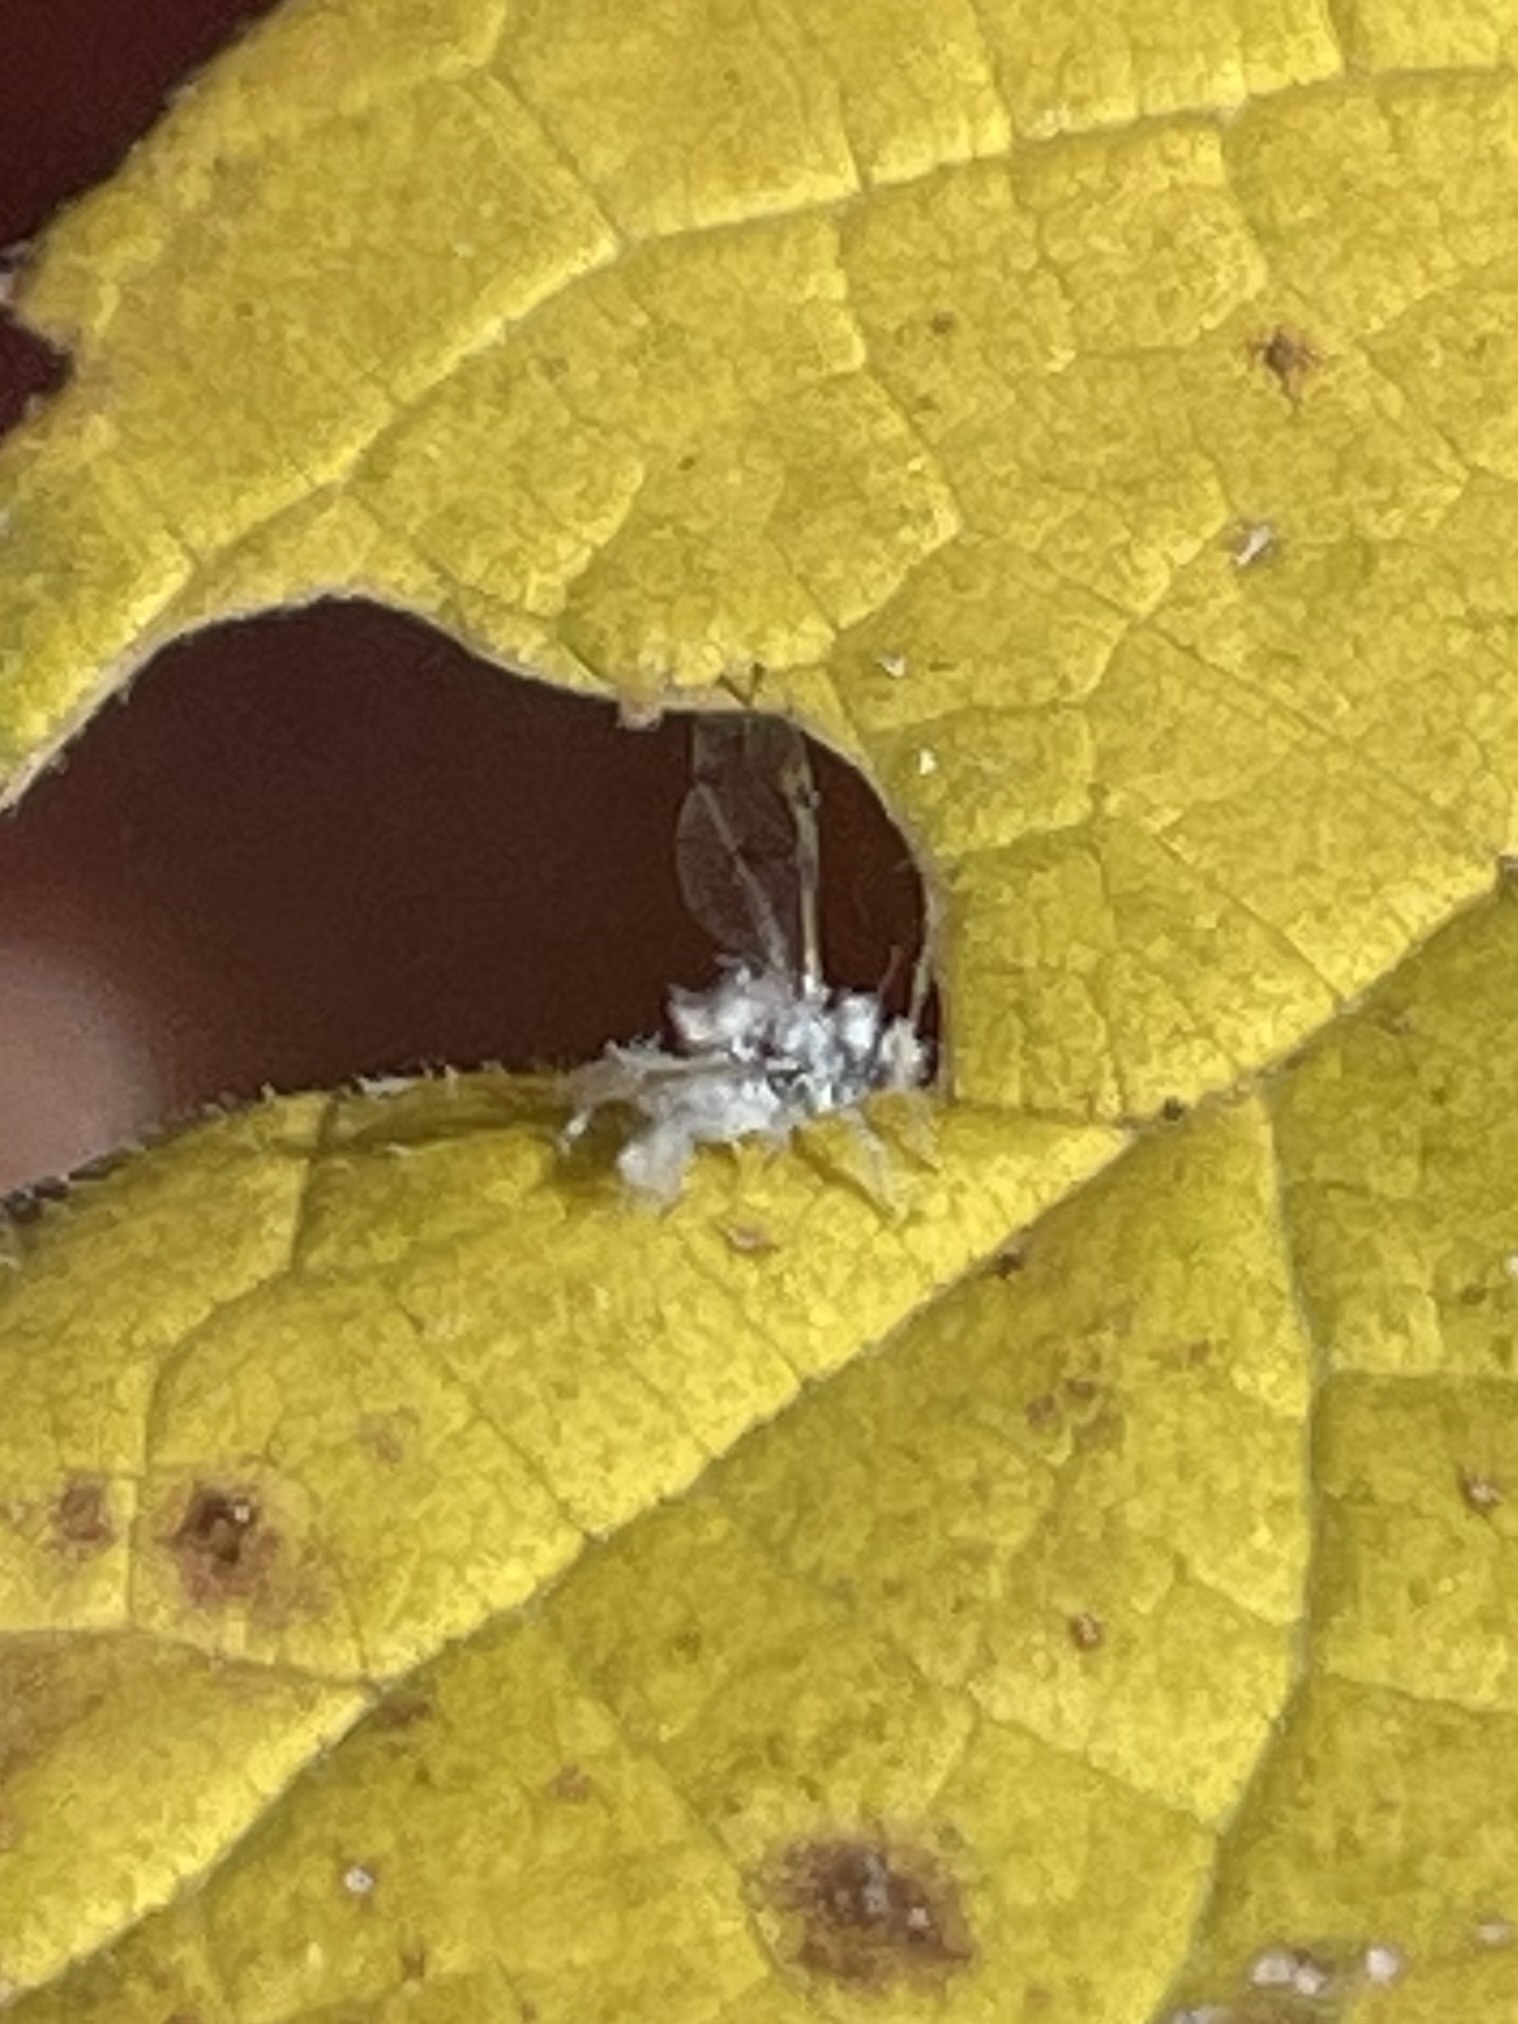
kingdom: Animalia
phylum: Arthropoda
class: Insecta
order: Hemiptera
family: Aphididae
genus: Shivaphis
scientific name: Shivaphis celti
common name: Asian wooly hackberry aphid
